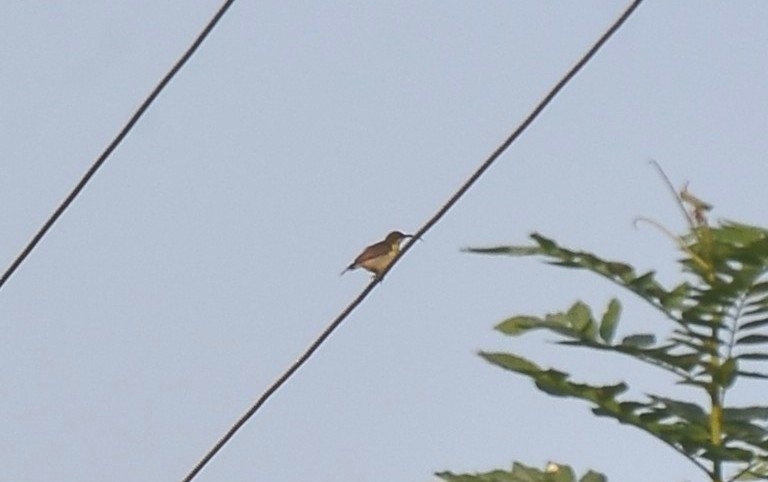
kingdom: Animalia
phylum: Chordata
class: Aves
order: Passeriformes
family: Nectariniidae
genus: Cinnyris
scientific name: Cinnyris lotenius
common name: Loten's sunbird
